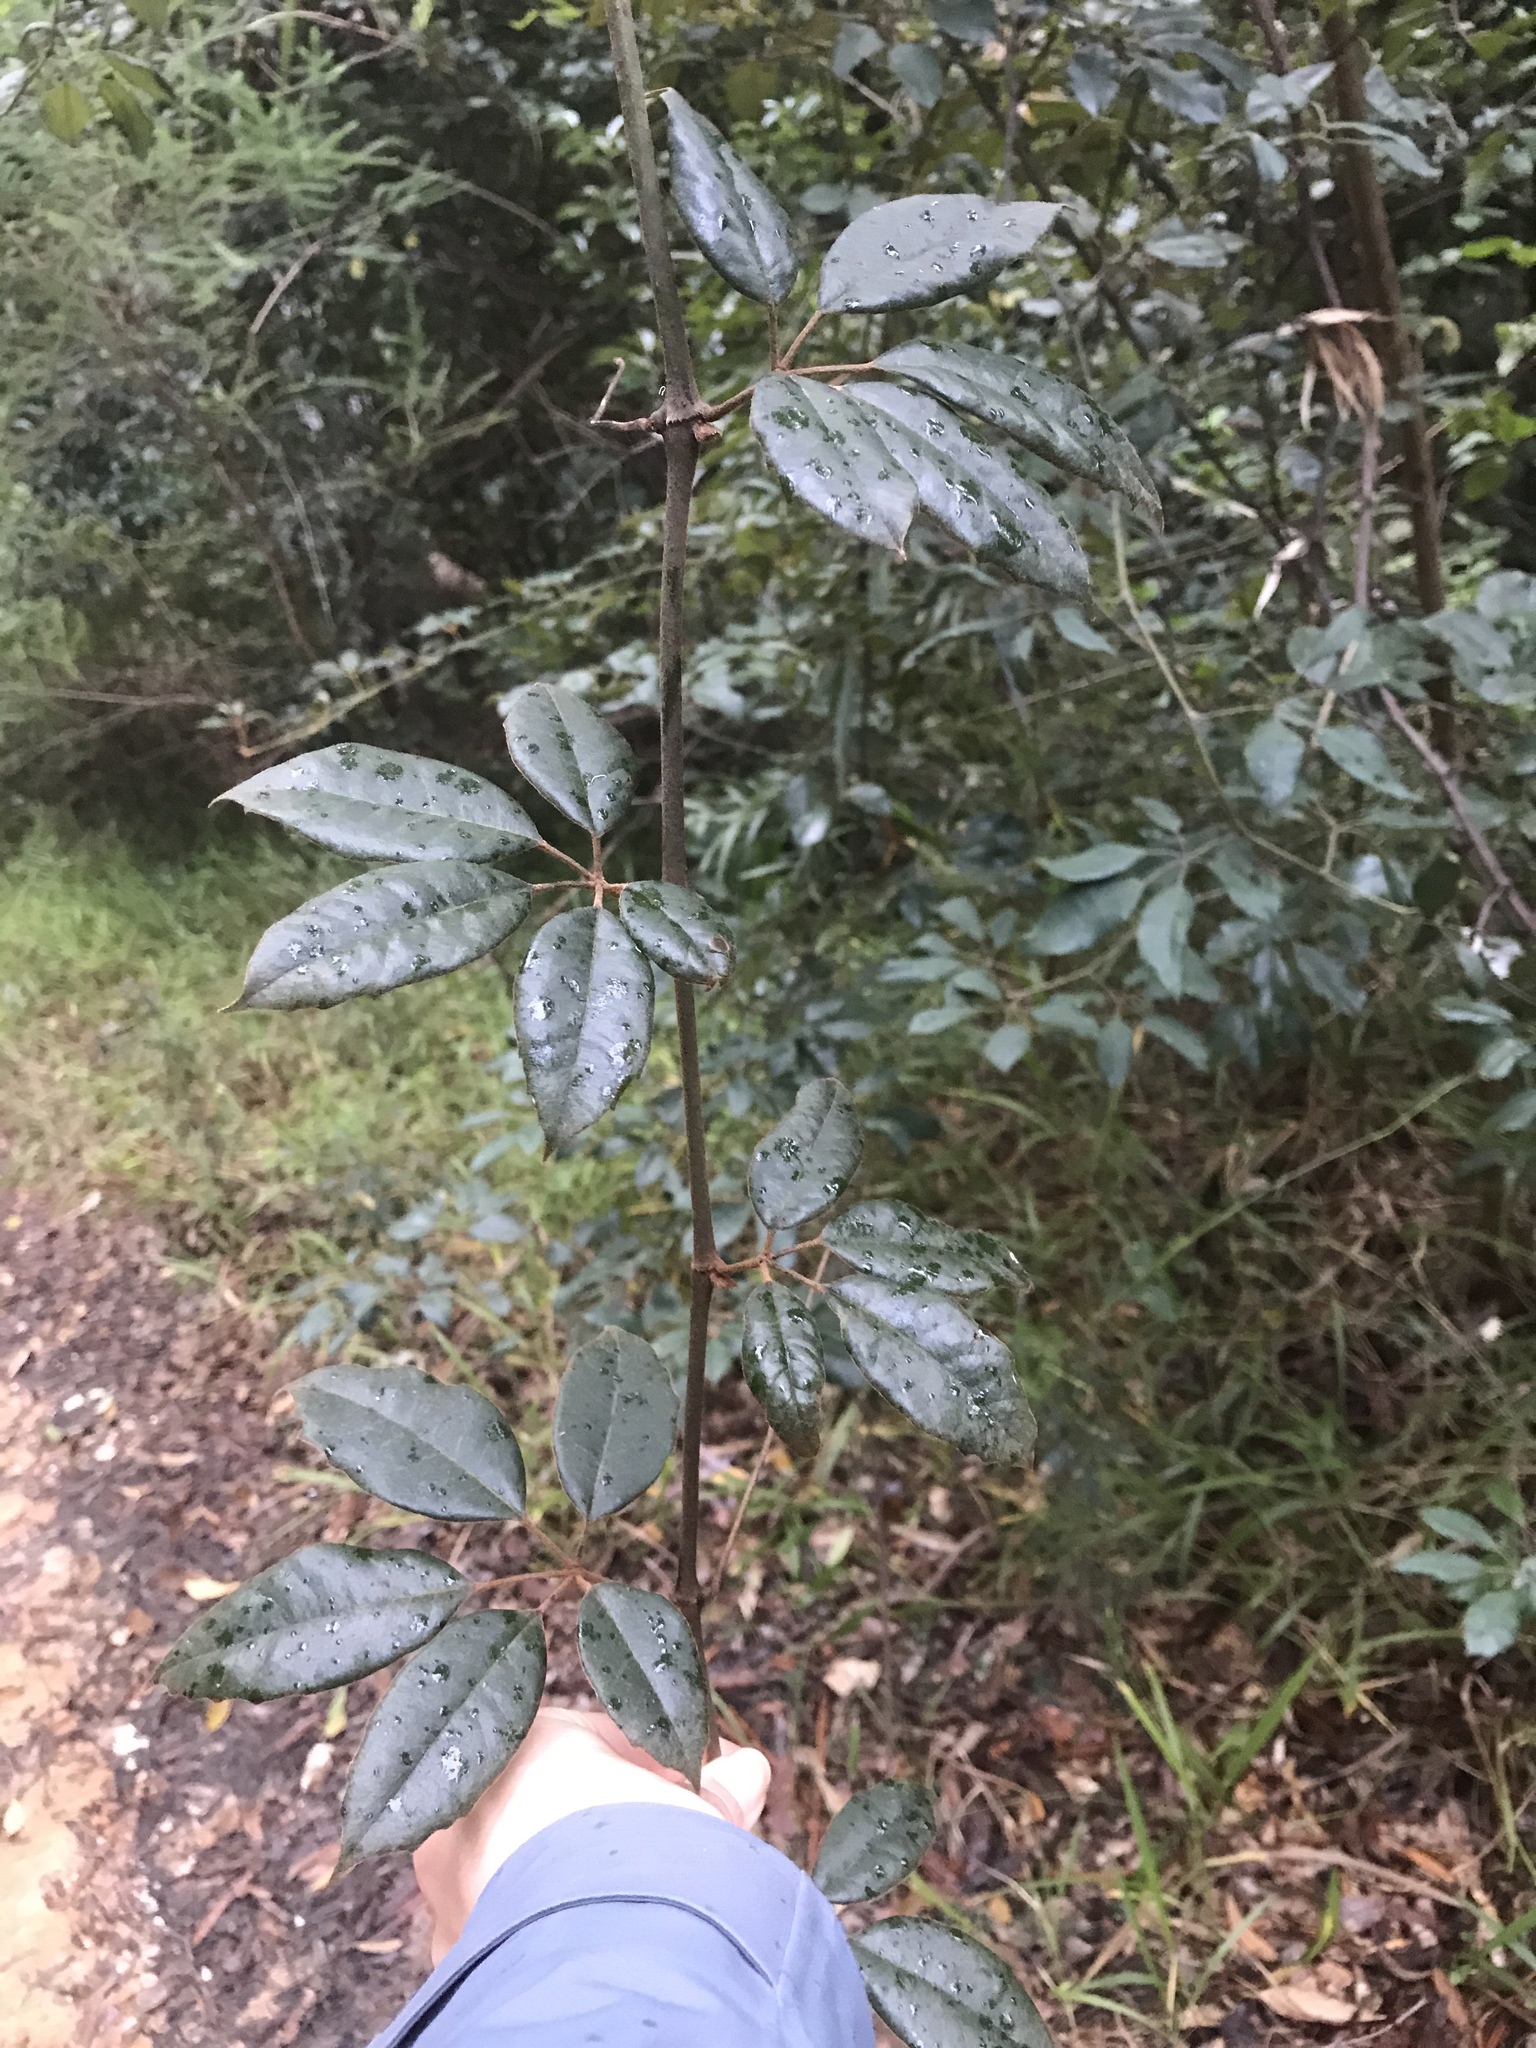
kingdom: Plantae
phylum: Tracheophyta
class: Magnoliopsida
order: Vitales
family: Vitaceae
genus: Nothocissus
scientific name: Nothocissus hypoglauca
